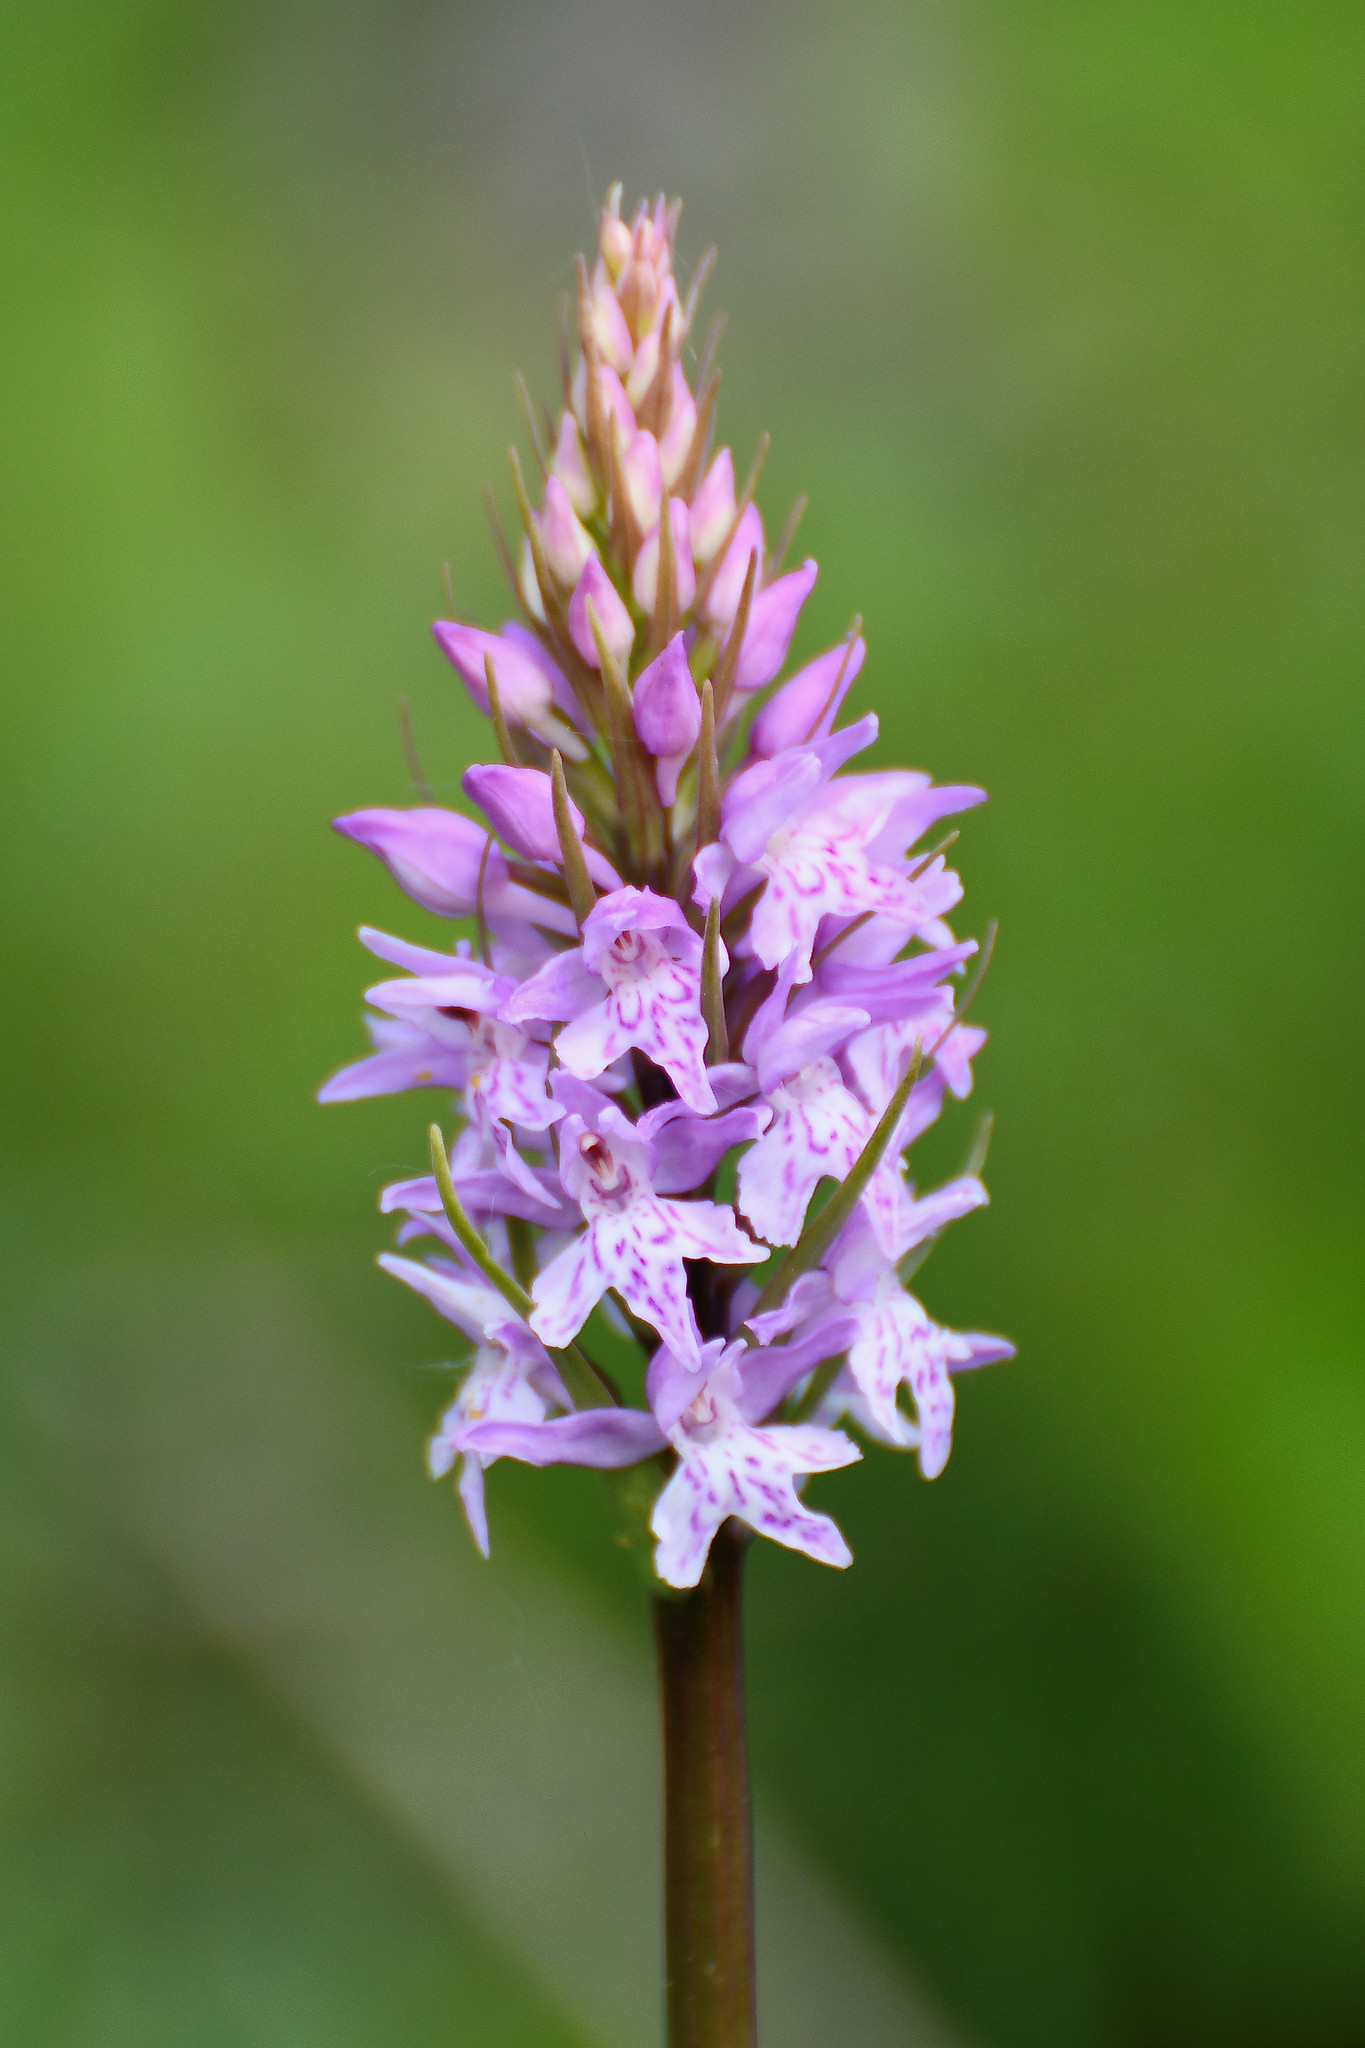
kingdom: Plantae
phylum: Tracheophyta
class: Liliopsida
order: Asparagales
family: Orchidaceae
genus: Dactylorhiza
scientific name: Dactylorhiza maculata
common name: Heath spotted-orchid
